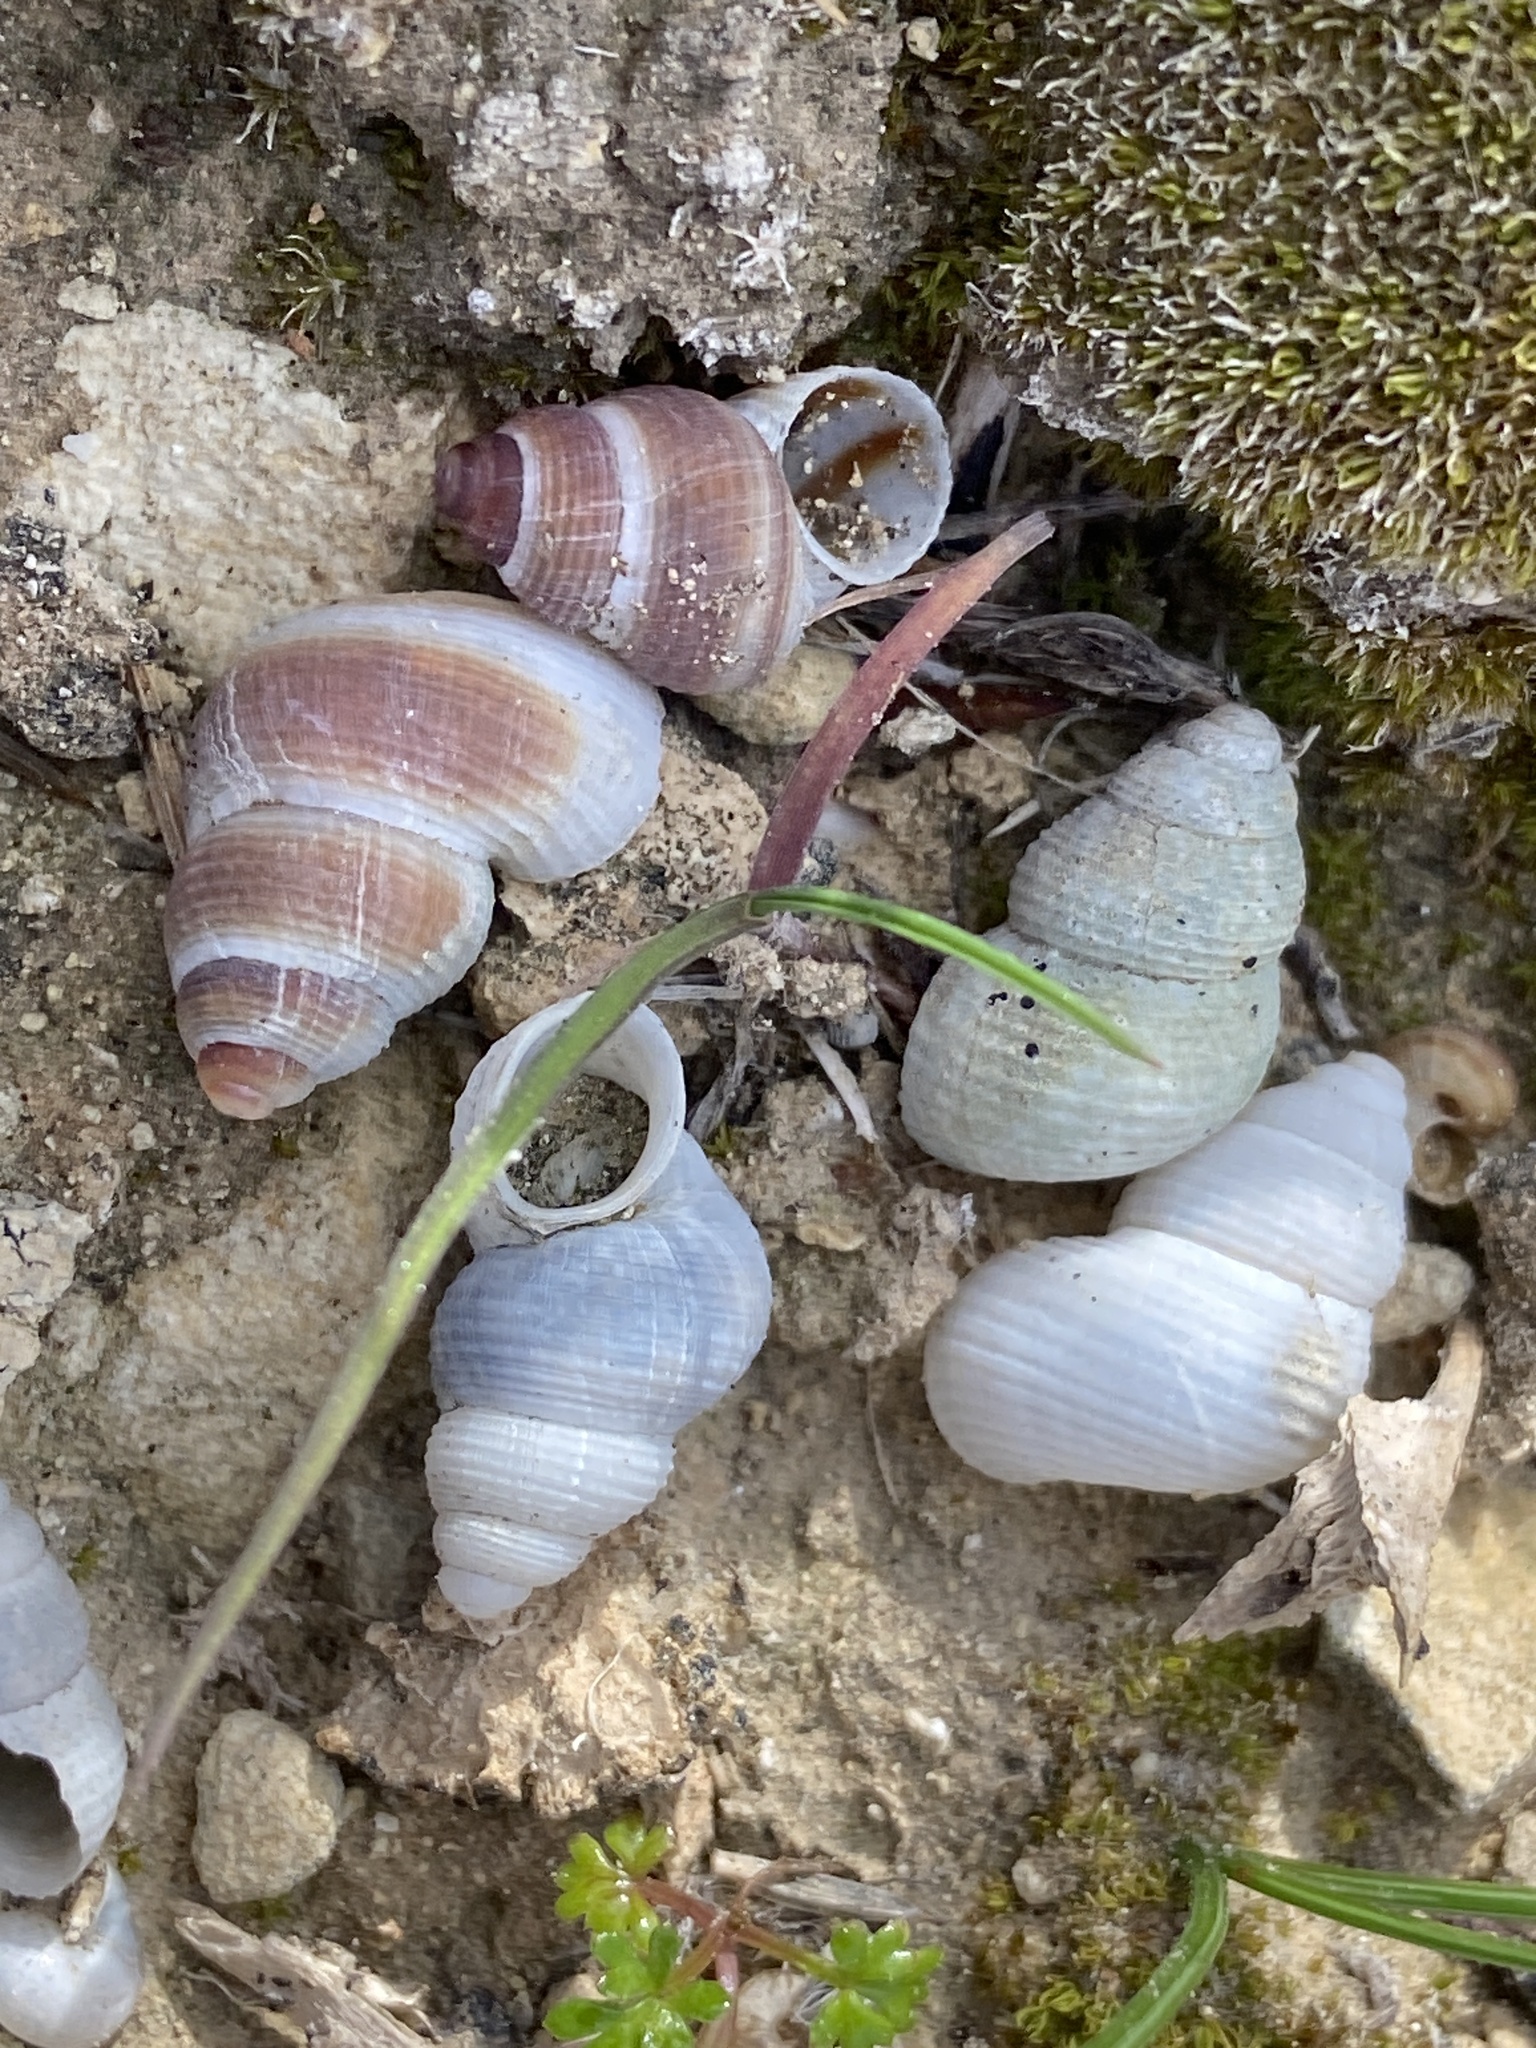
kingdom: Animalia
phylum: Mollusca
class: Gastropoda
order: Littorinimorpha
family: Pomatiidae
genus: Tudorella
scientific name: Tudorella melitensis
